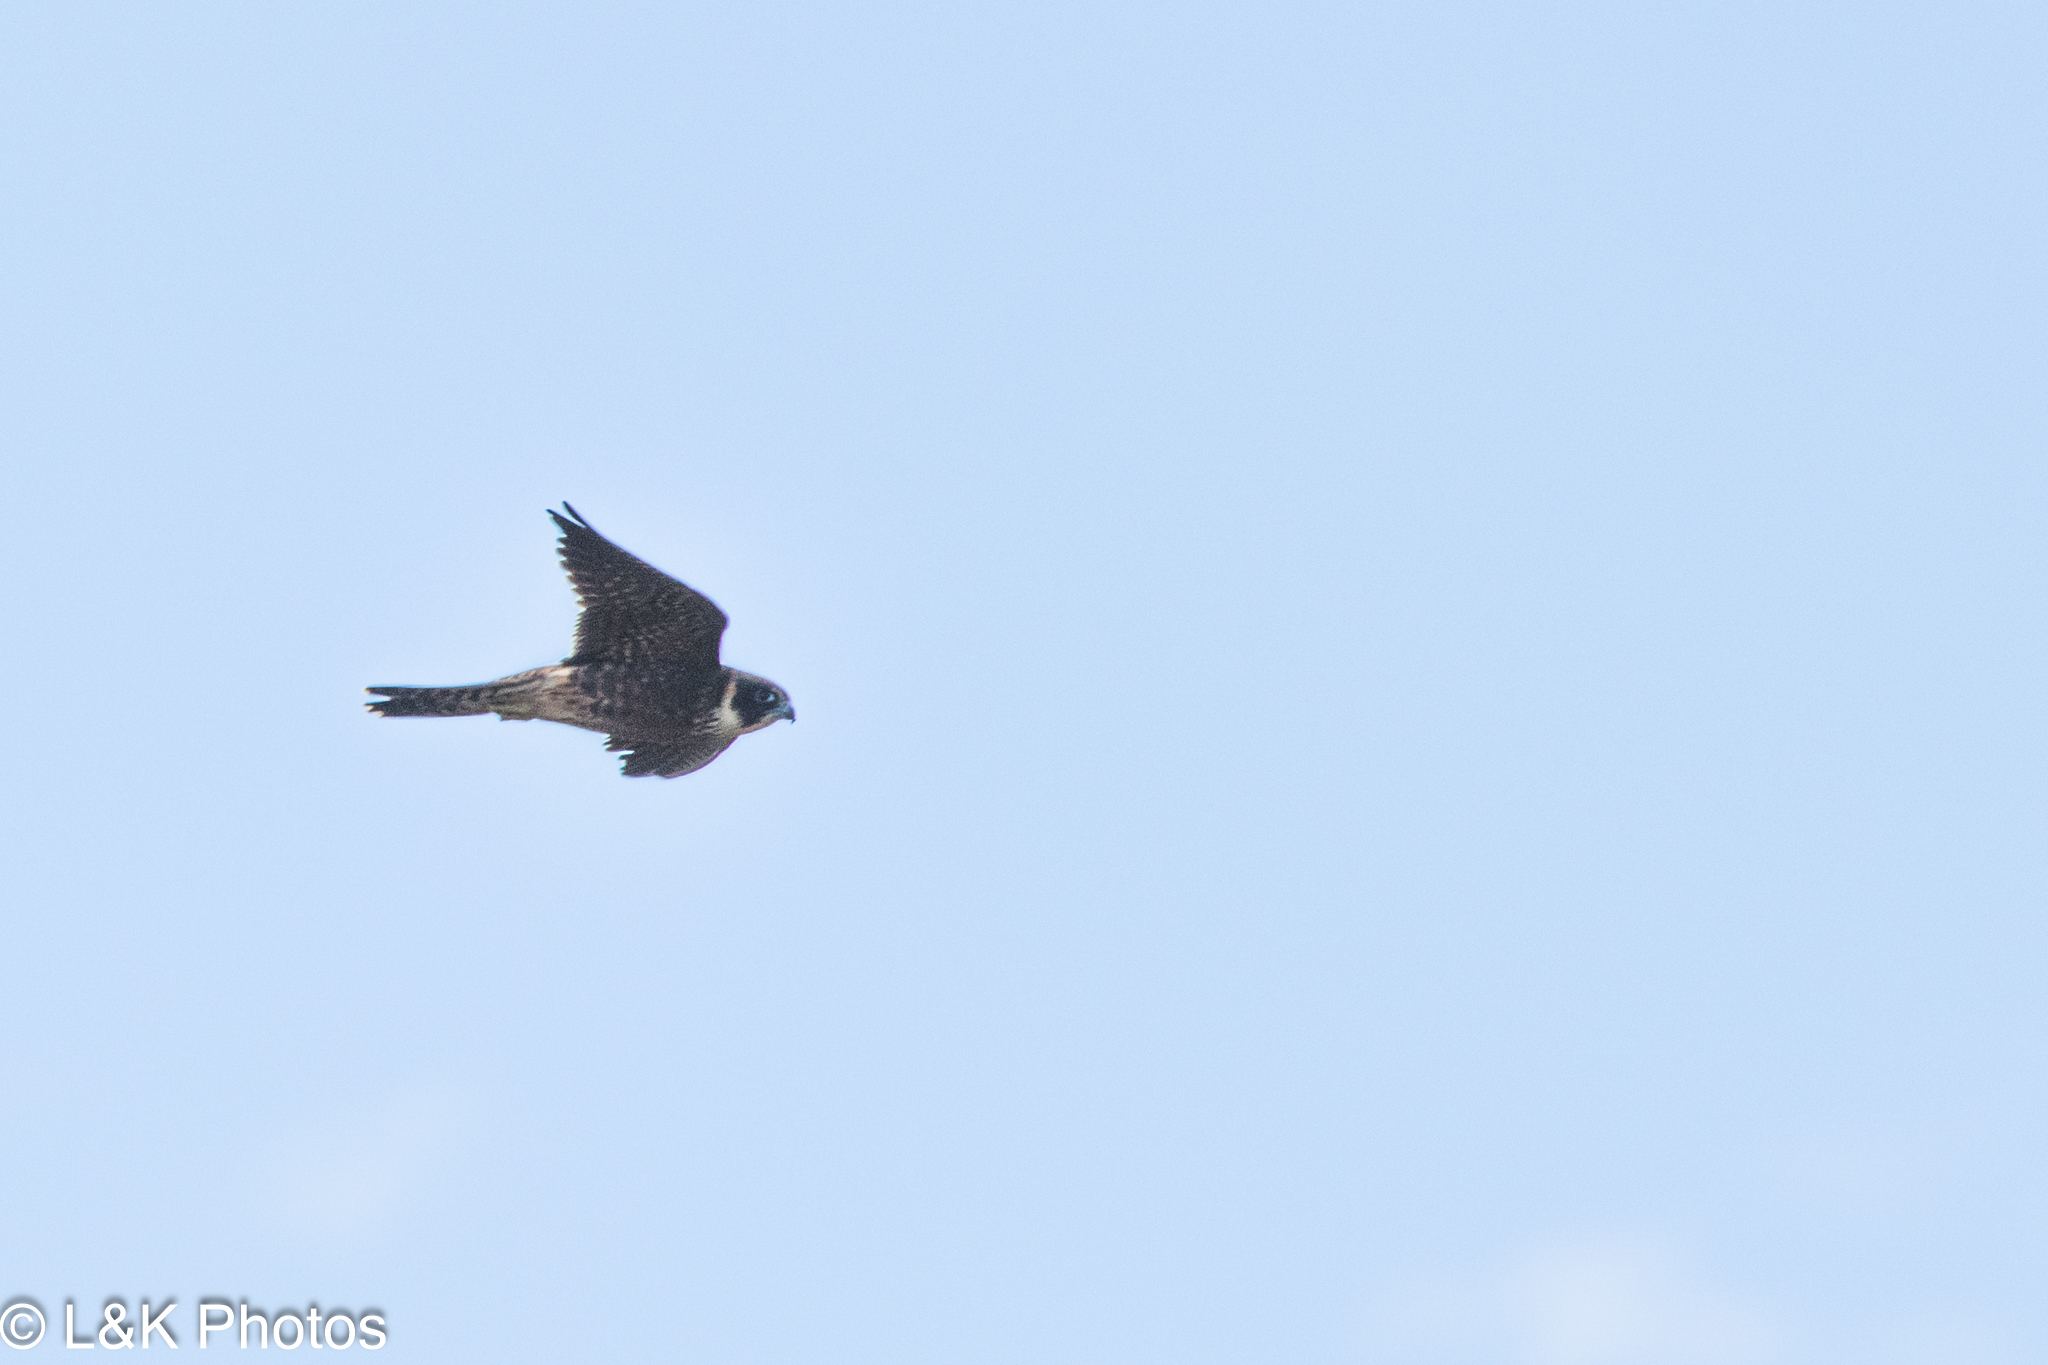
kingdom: Animalia
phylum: Chordata
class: Aves
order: Falconiformes
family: Falconidae
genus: Falco
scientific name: Falco longipennis
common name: Australian hobby
